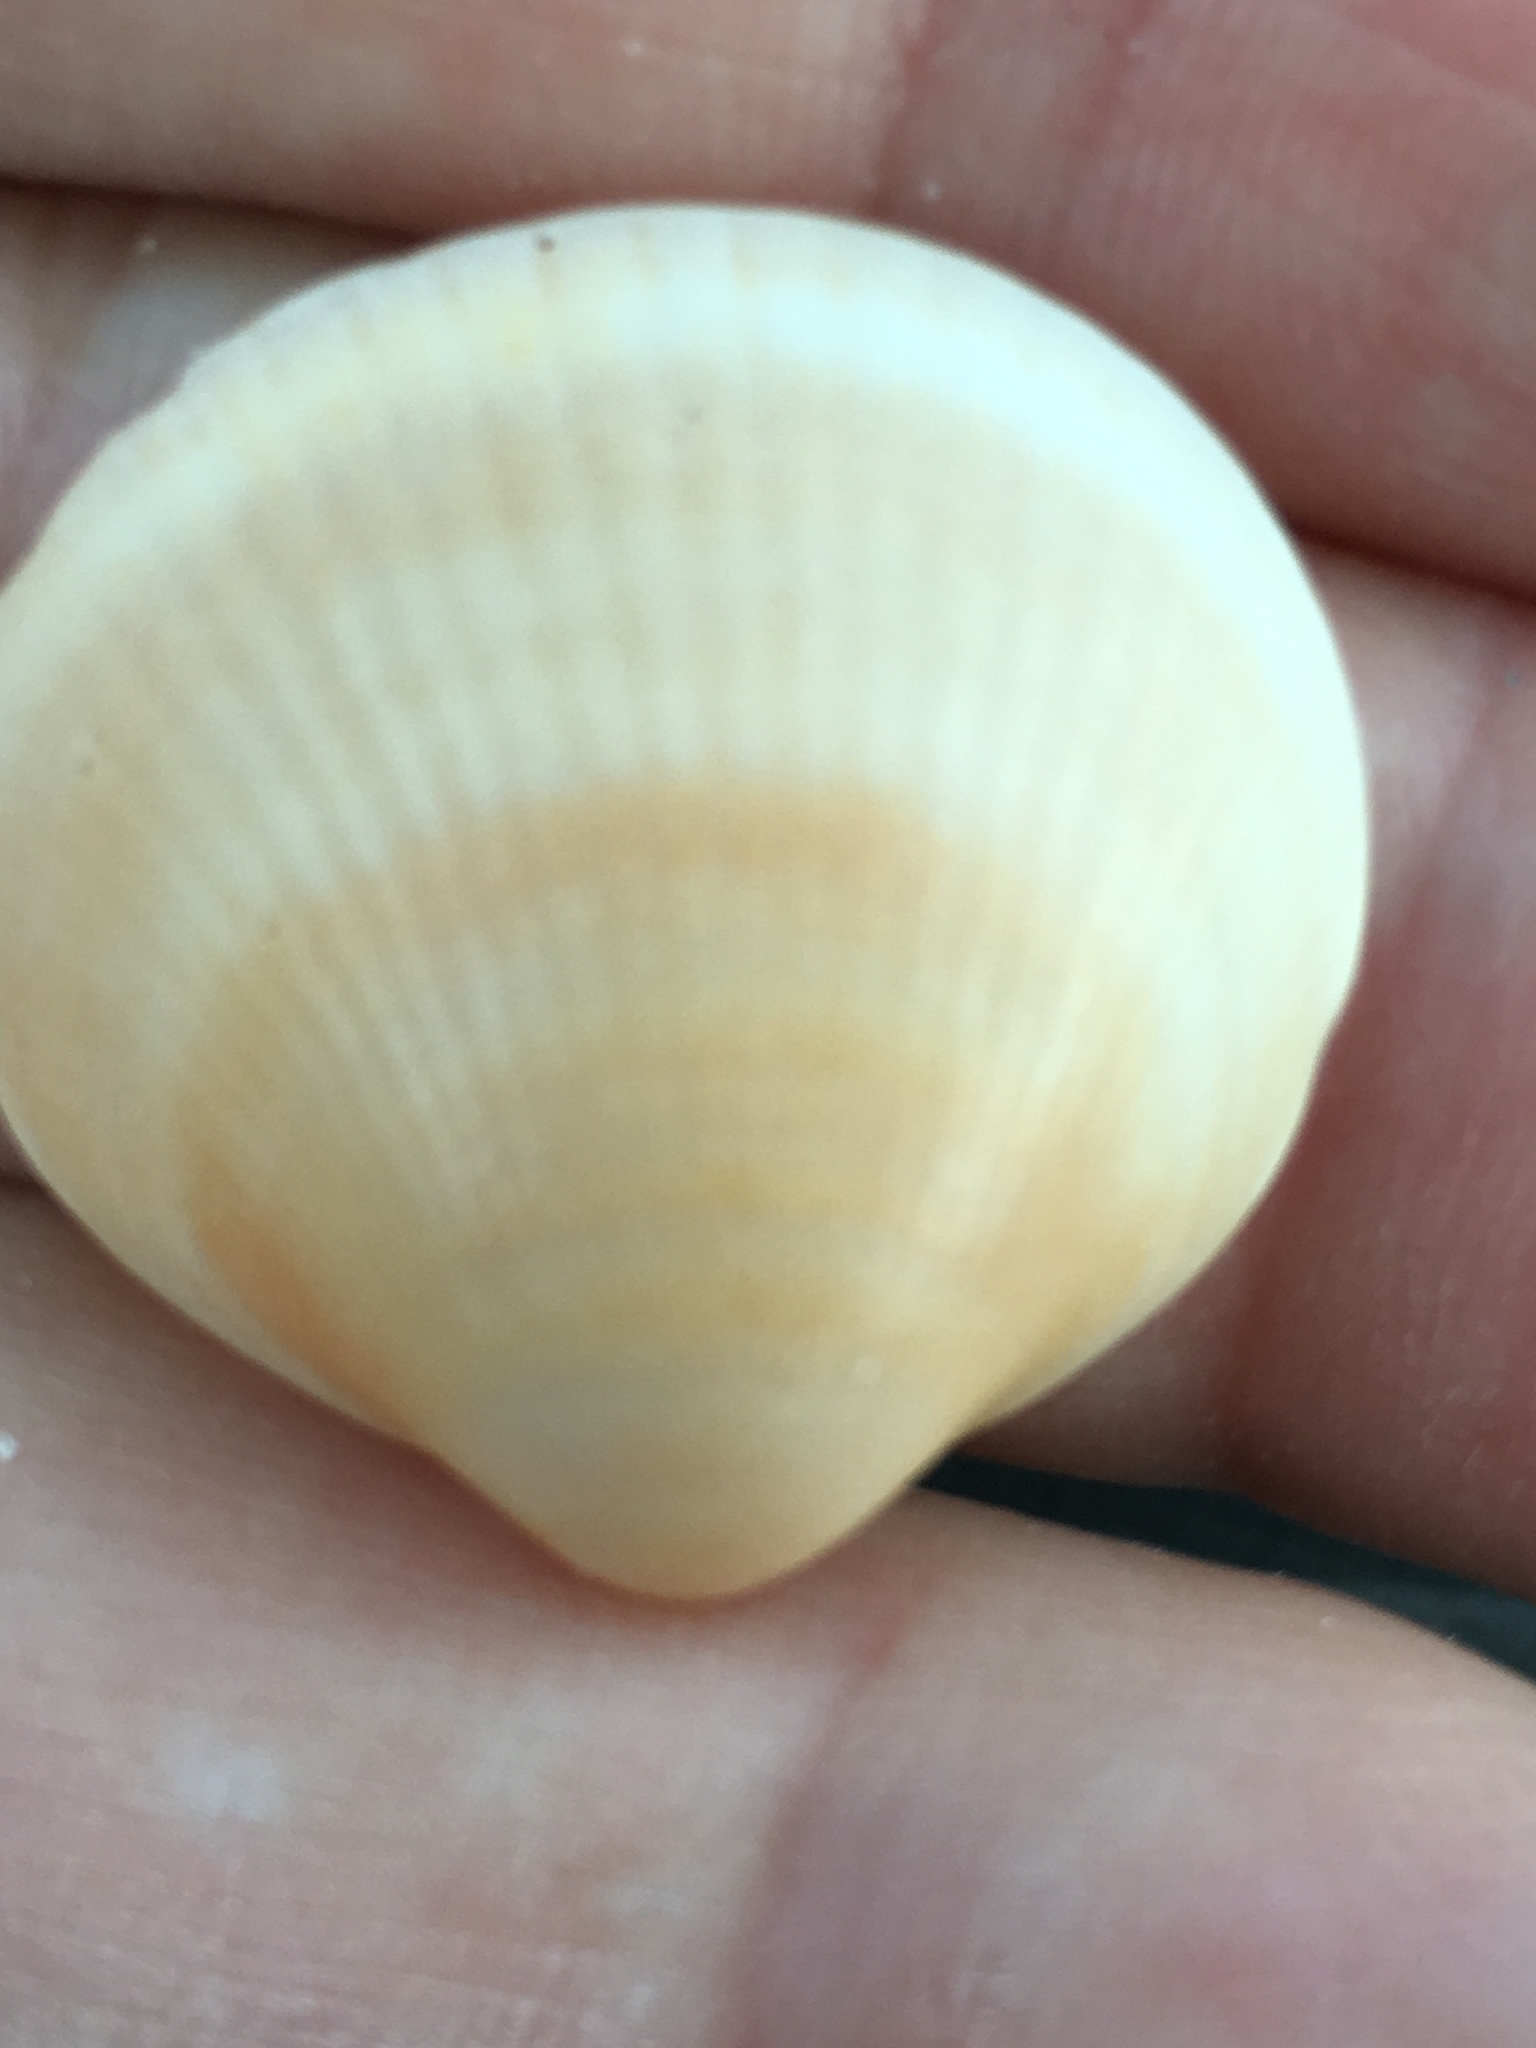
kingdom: Animalia
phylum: Mollusca
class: Bivalvia
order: Arcida
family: Glycymerididae
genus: Glycymeris
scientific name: Glycymeris spectralis
